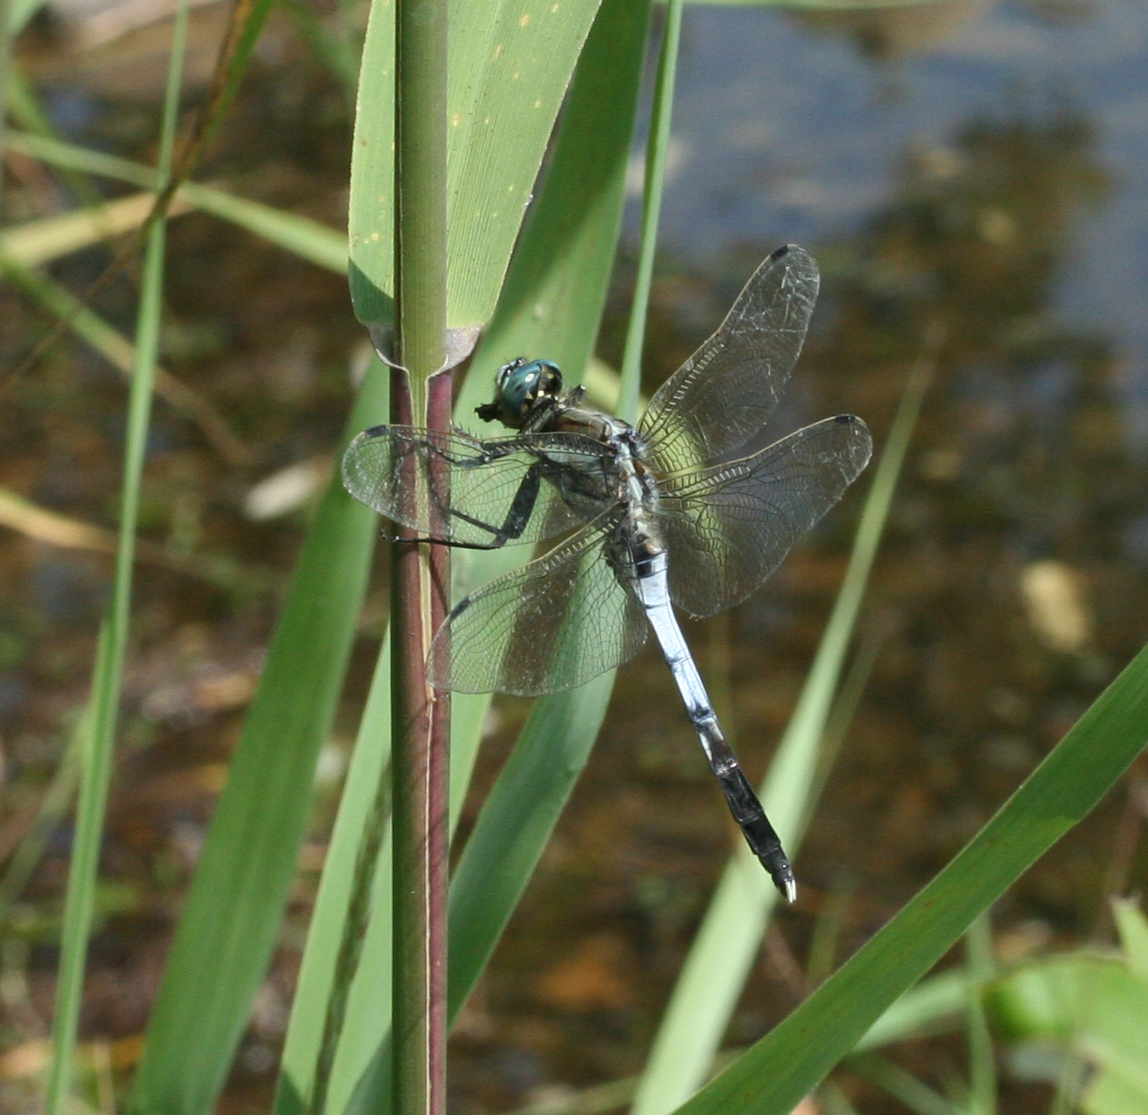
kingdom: Animalia
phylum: Arthropoda
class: Insecta
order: Odonata
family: Libellulidae
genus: Orthetrum
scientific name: Orthetrum albistylum
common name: White-tailed skimmer
